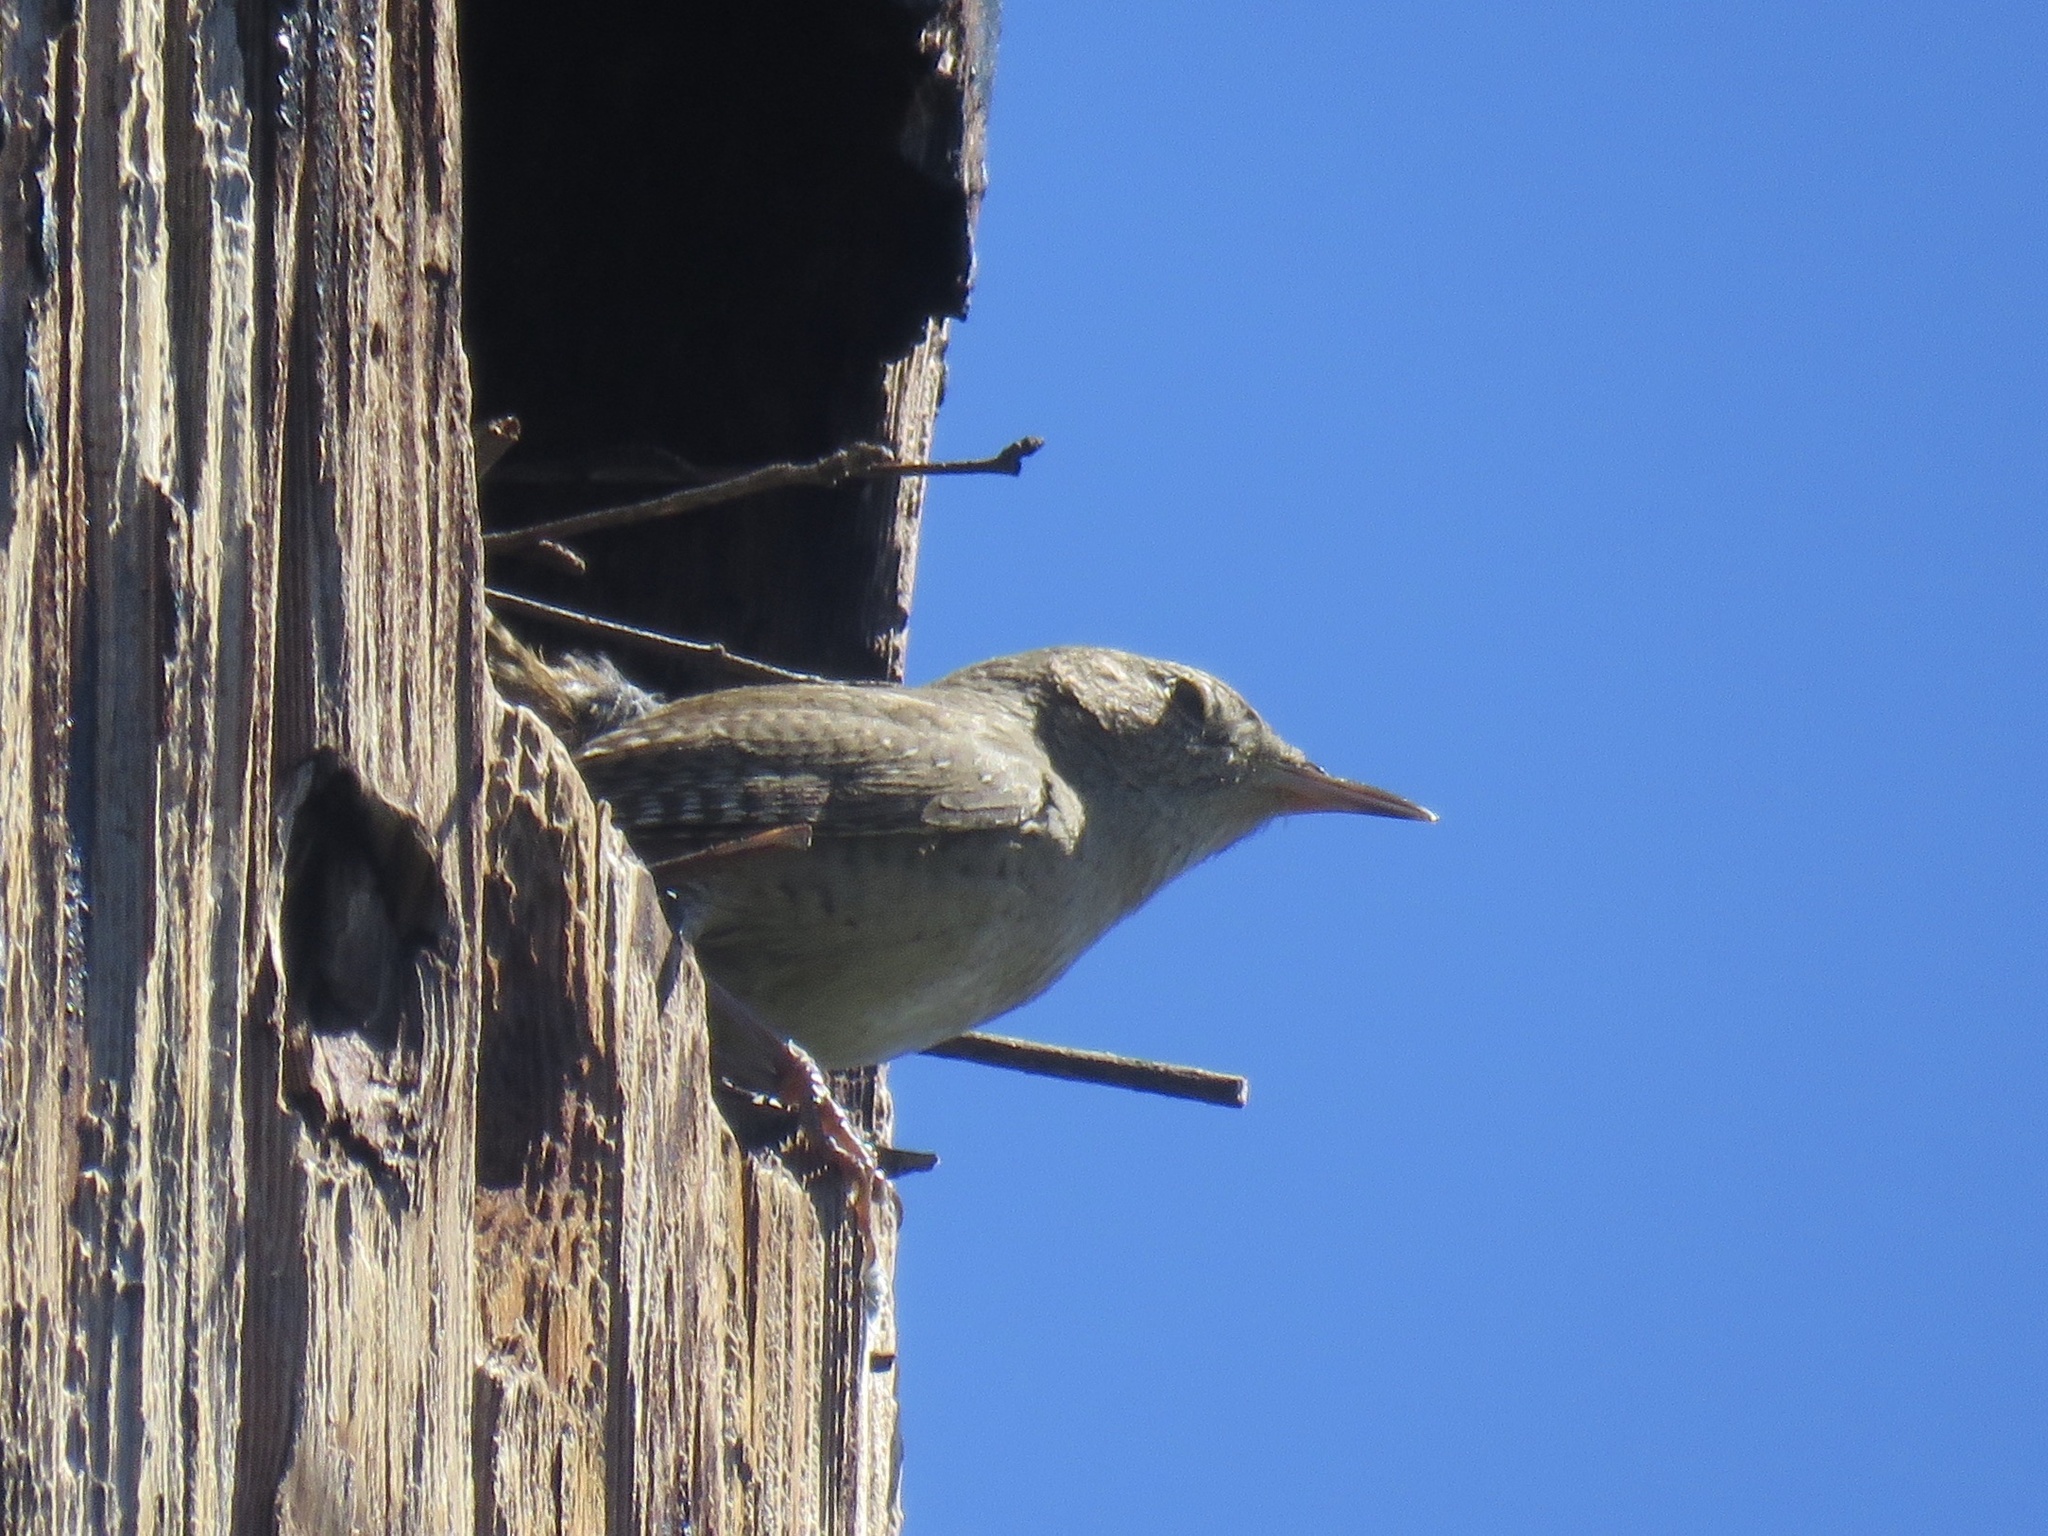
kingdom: Animalia
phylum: Chordata
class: Aves
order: Passeriformes
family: Troglodytidae
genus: Troglodytes
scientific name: Troglodytes aedon
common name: House wren
